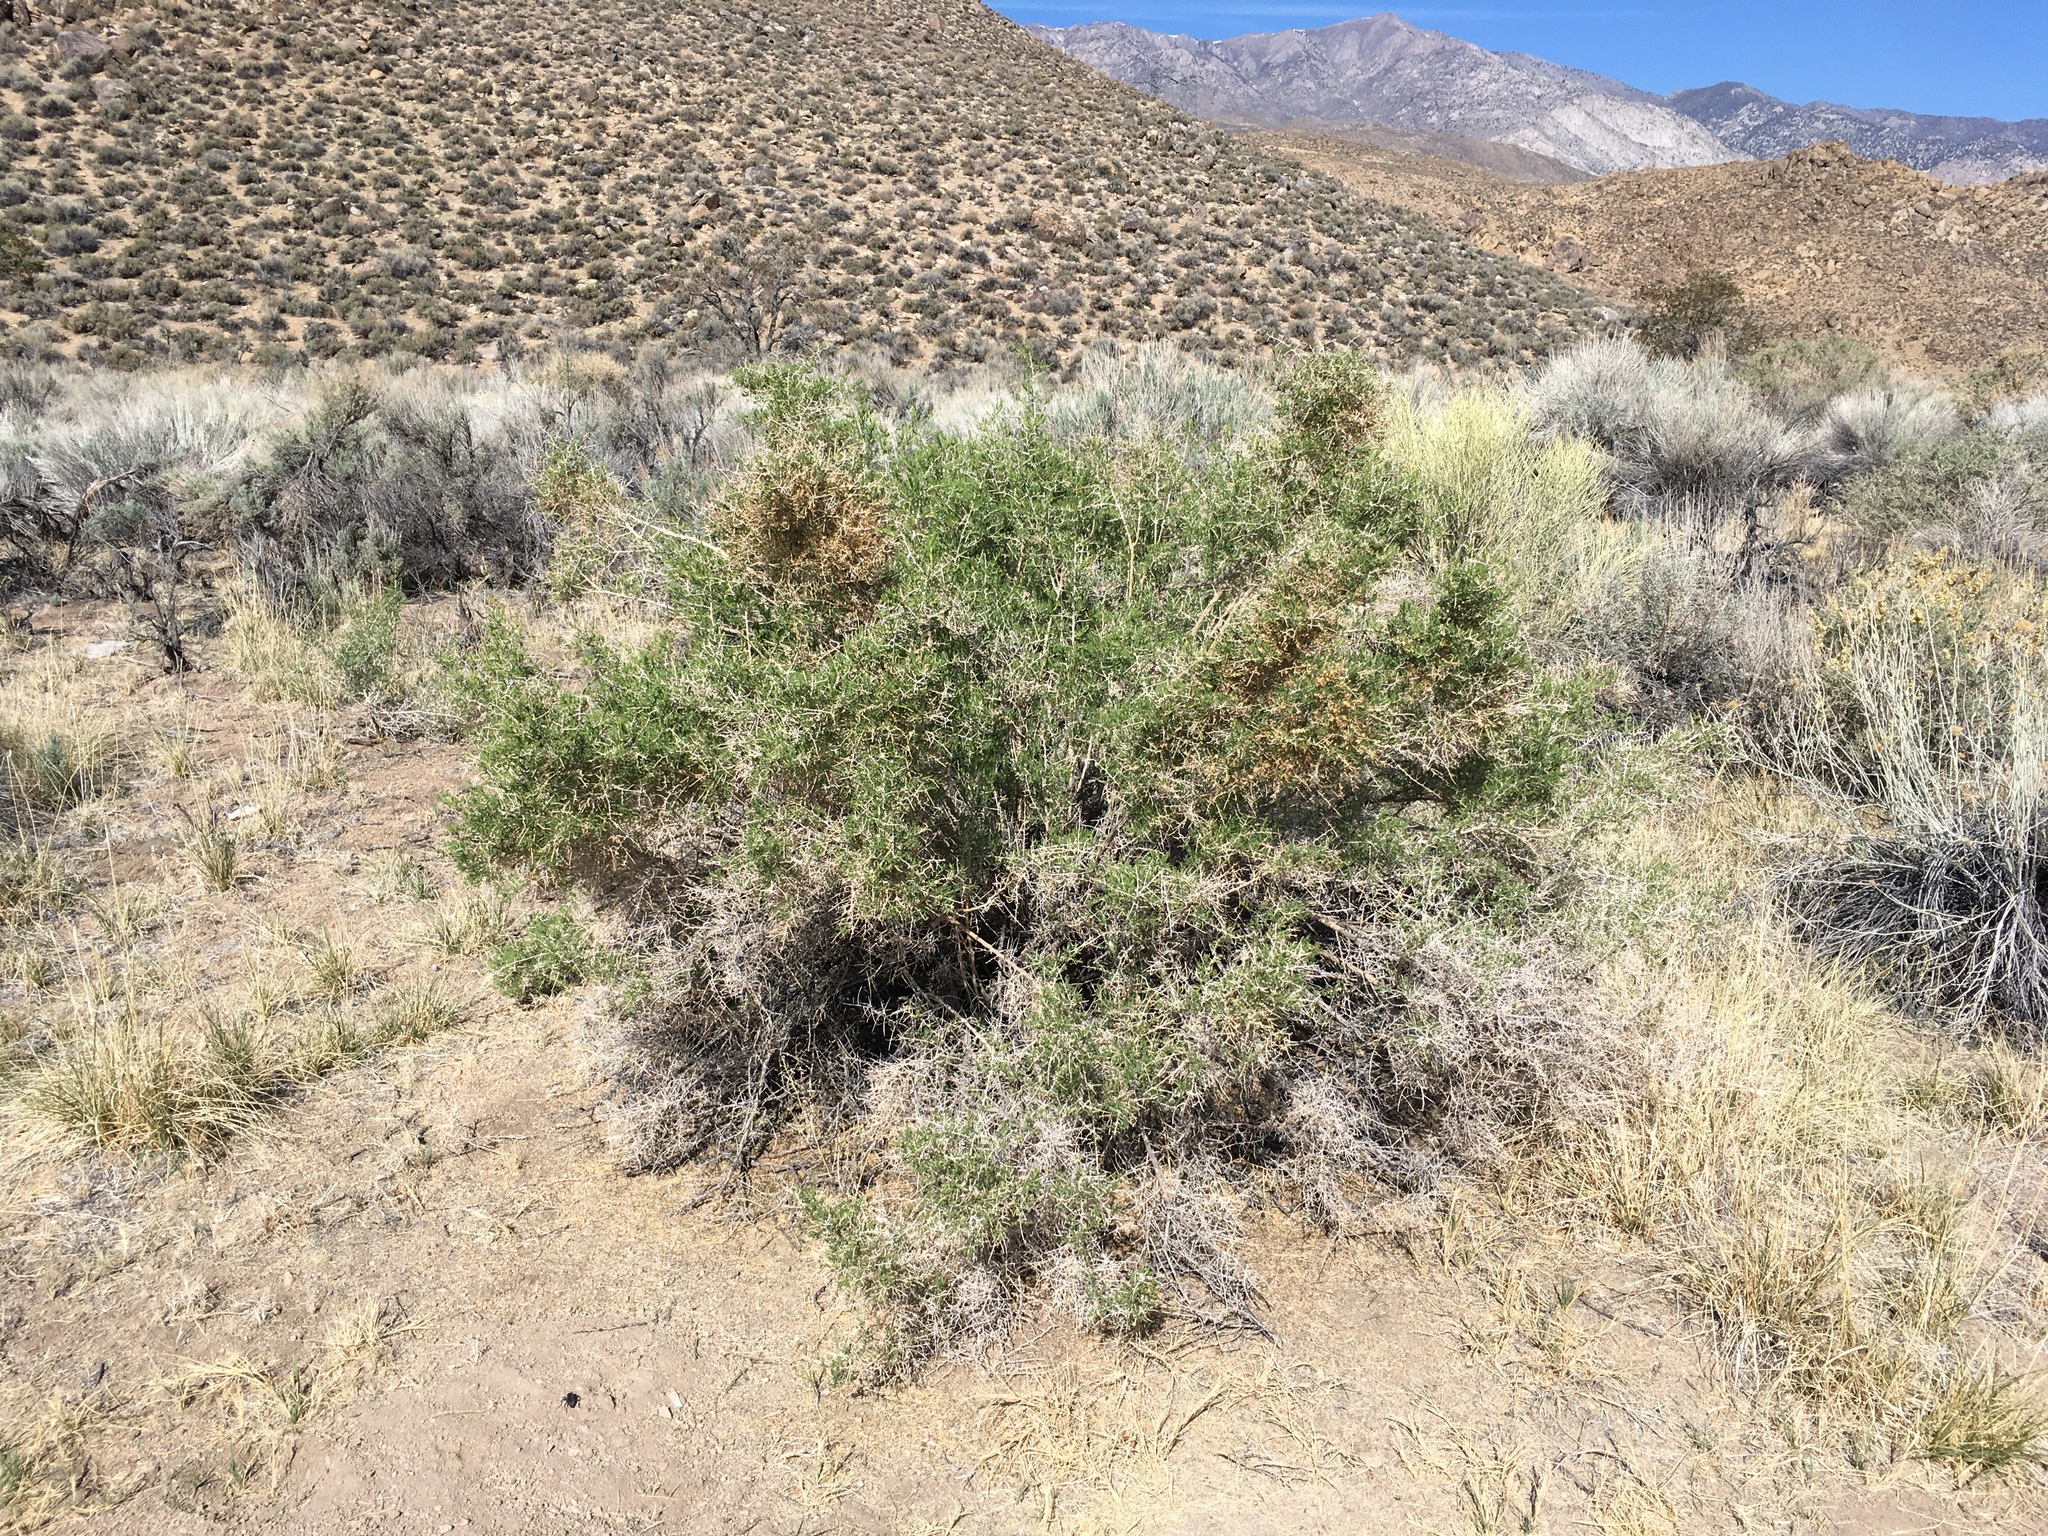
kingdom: Plantae
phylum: Tracheophyta
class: Magnoliopsida
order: Caryophyllales
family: Sarcobataceae
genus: Sarcobatus
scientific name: Sarcobatus vermiculatus
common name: Greasewood
